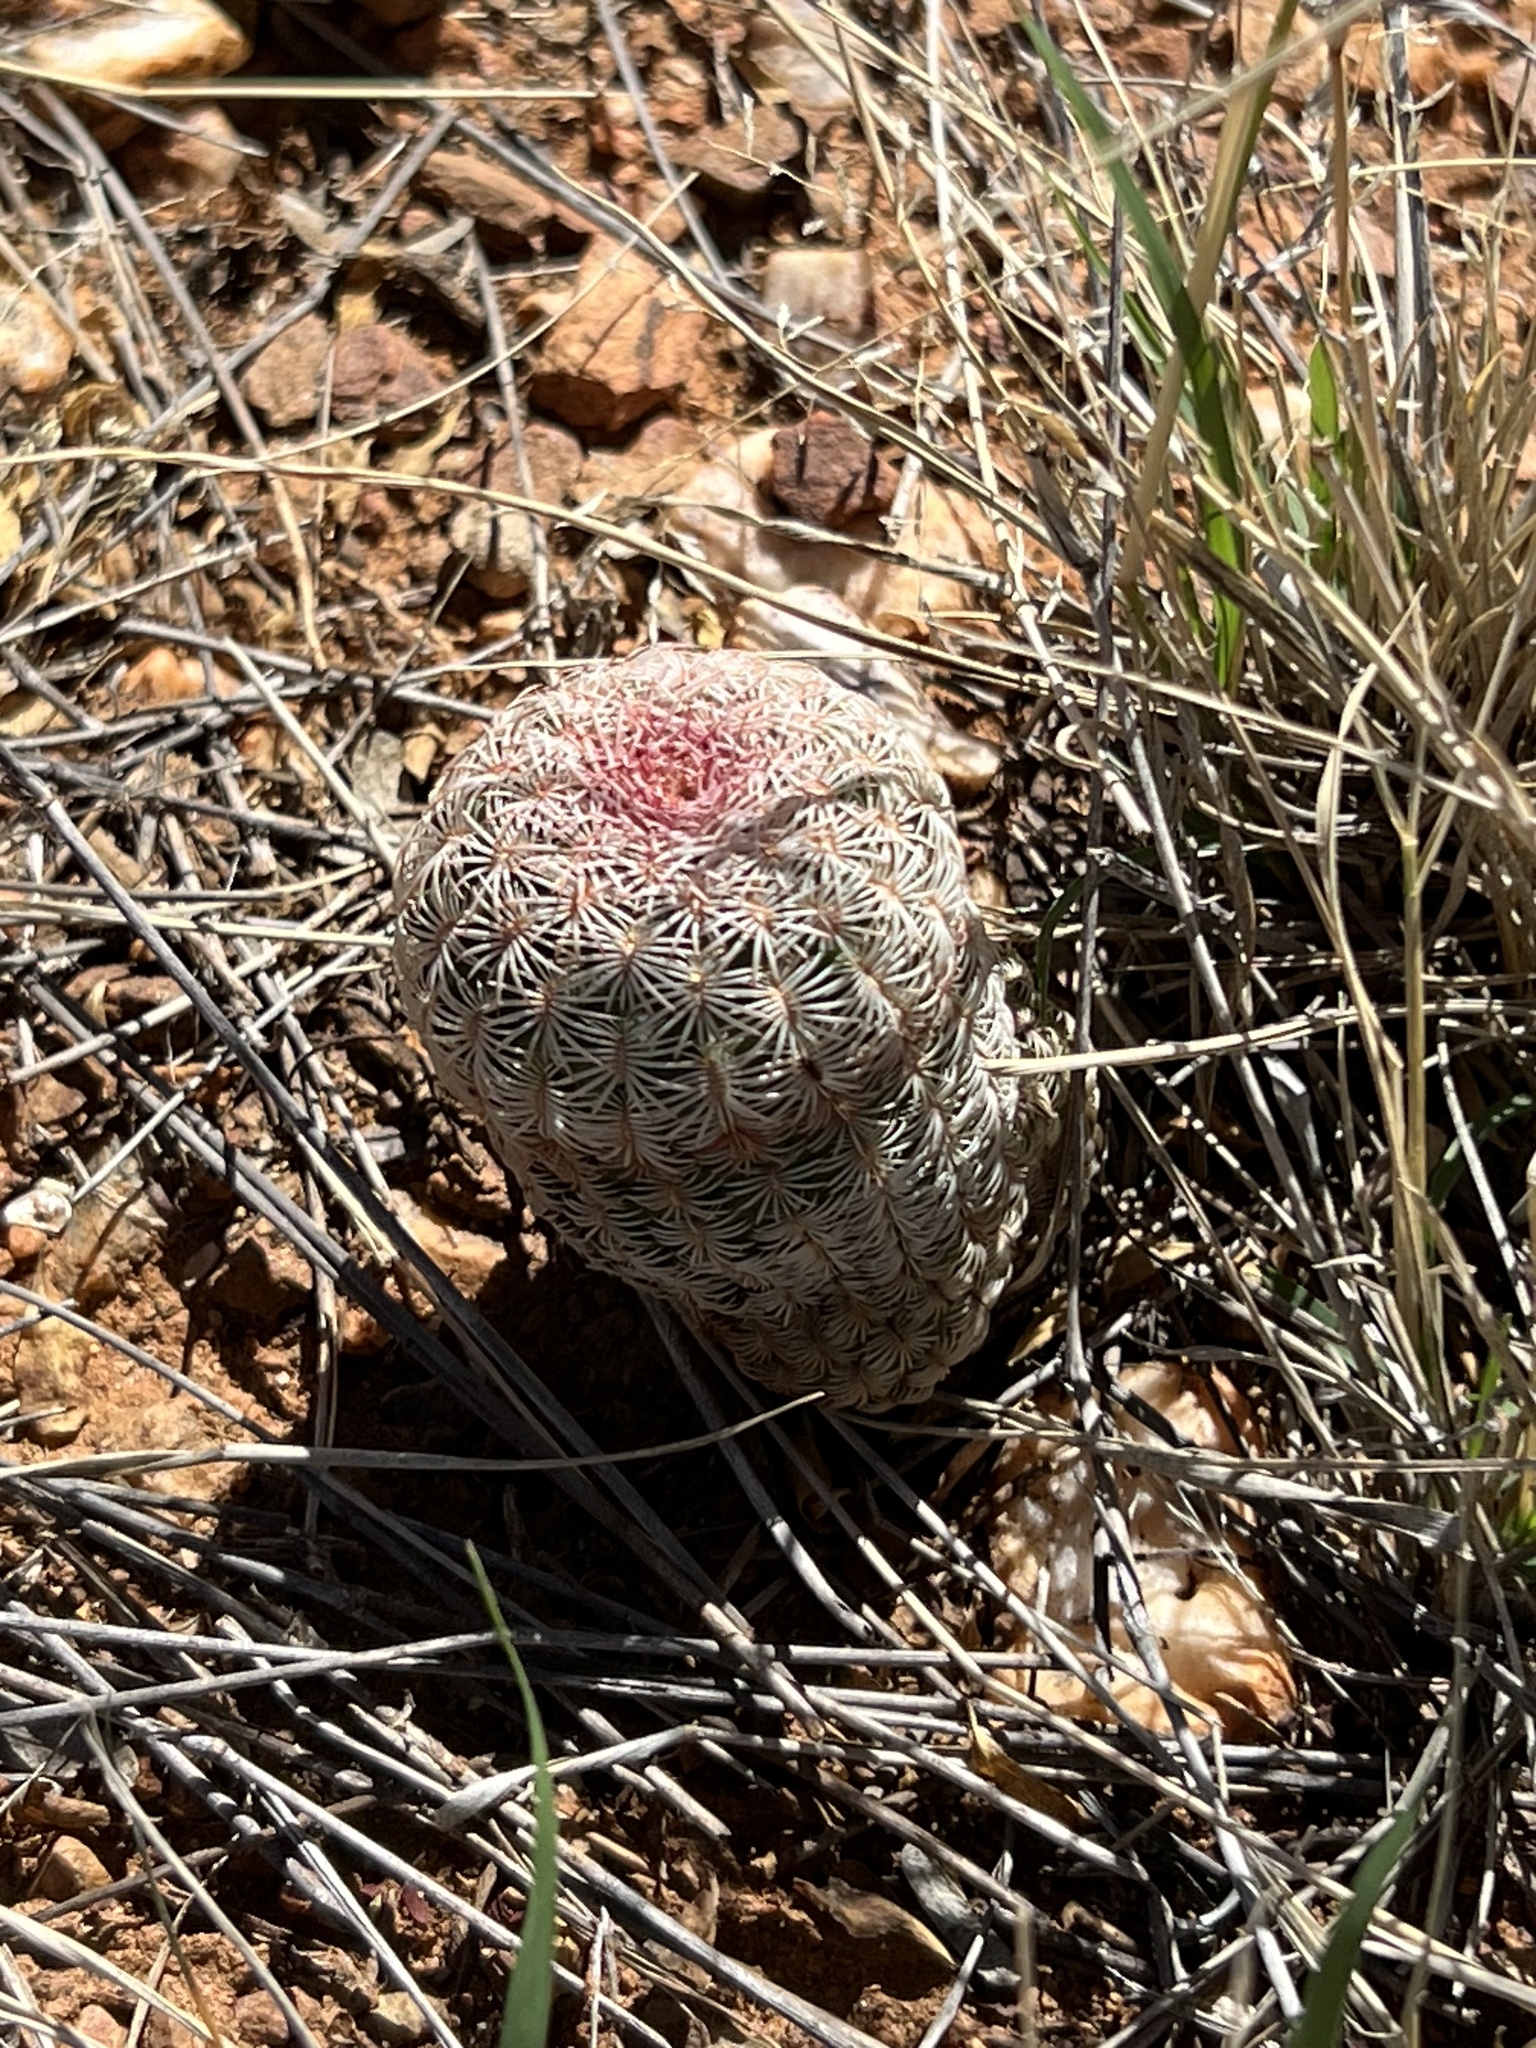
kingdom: Plantae
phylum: Tracheophyta
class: Magnoliopsida
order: Caryophyllales
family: Cactaceae
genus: Echinocereus
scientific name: Echinocereus rigidissimus
